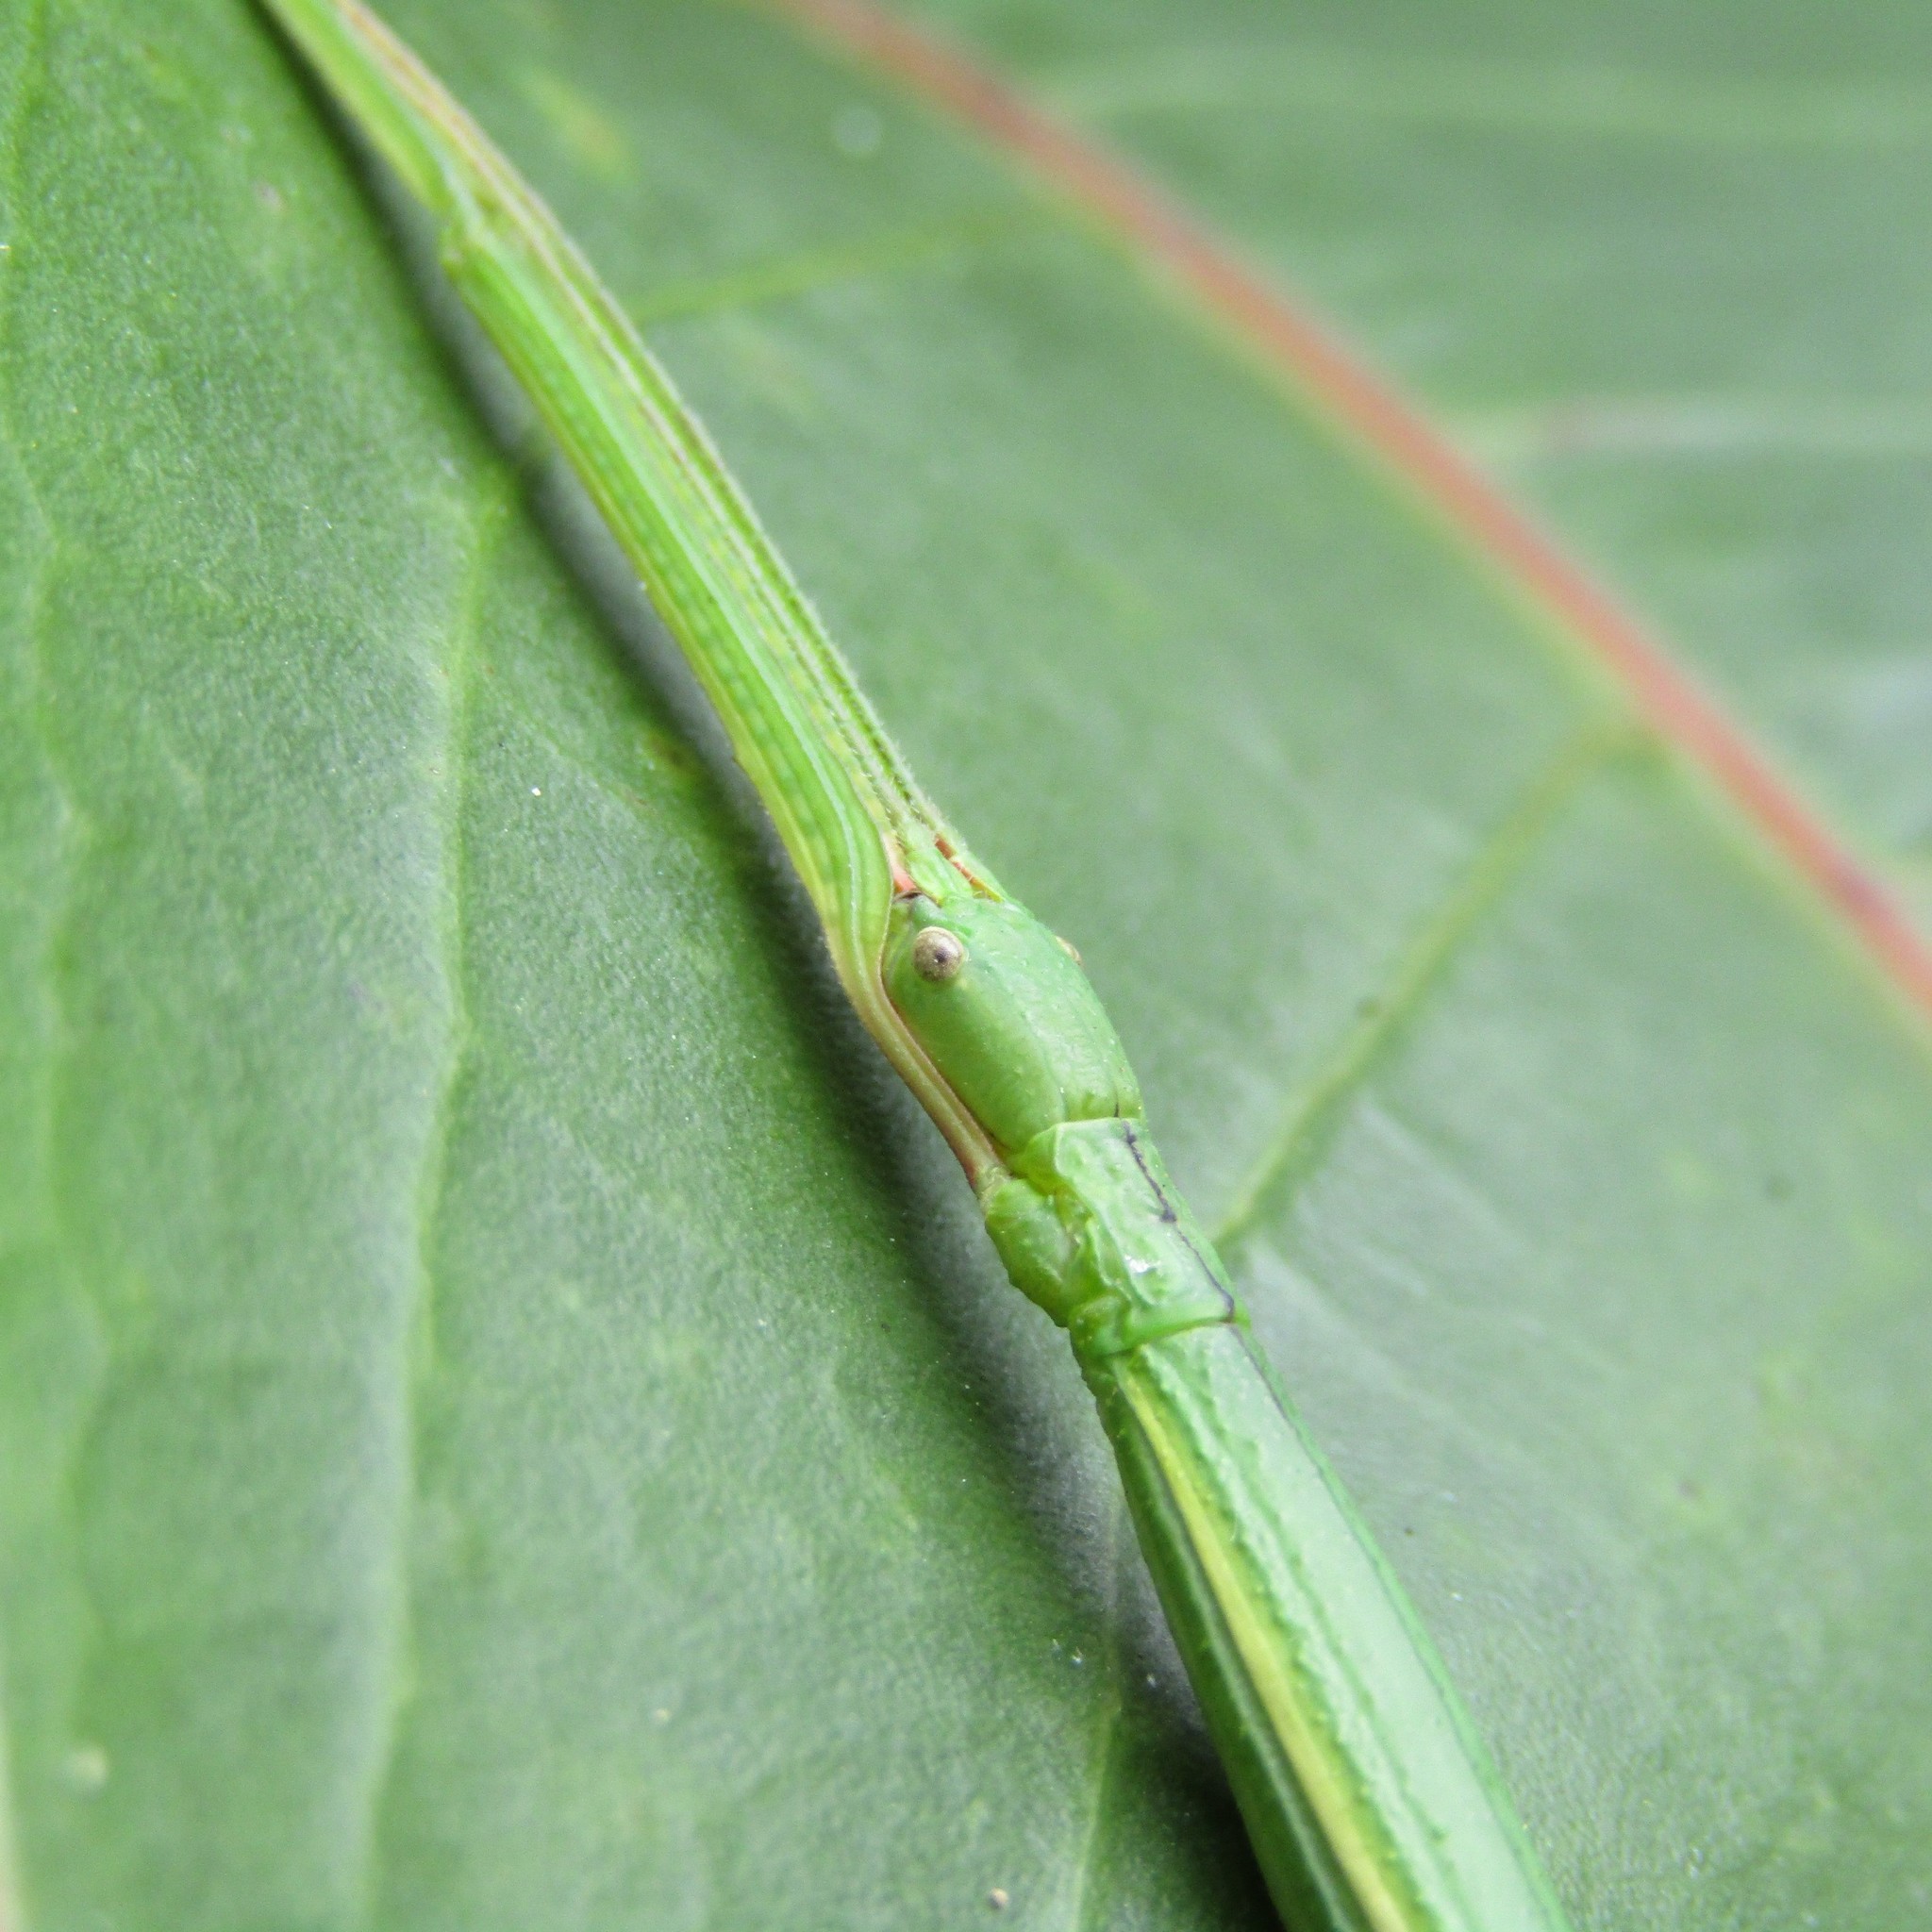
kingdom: Animalia
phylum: Arthropoda
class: Insecta
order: Phasmida
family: Phasmatidae
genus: Clitarchus
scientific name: Clitarchus hookeri
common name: Smooth stick insect
